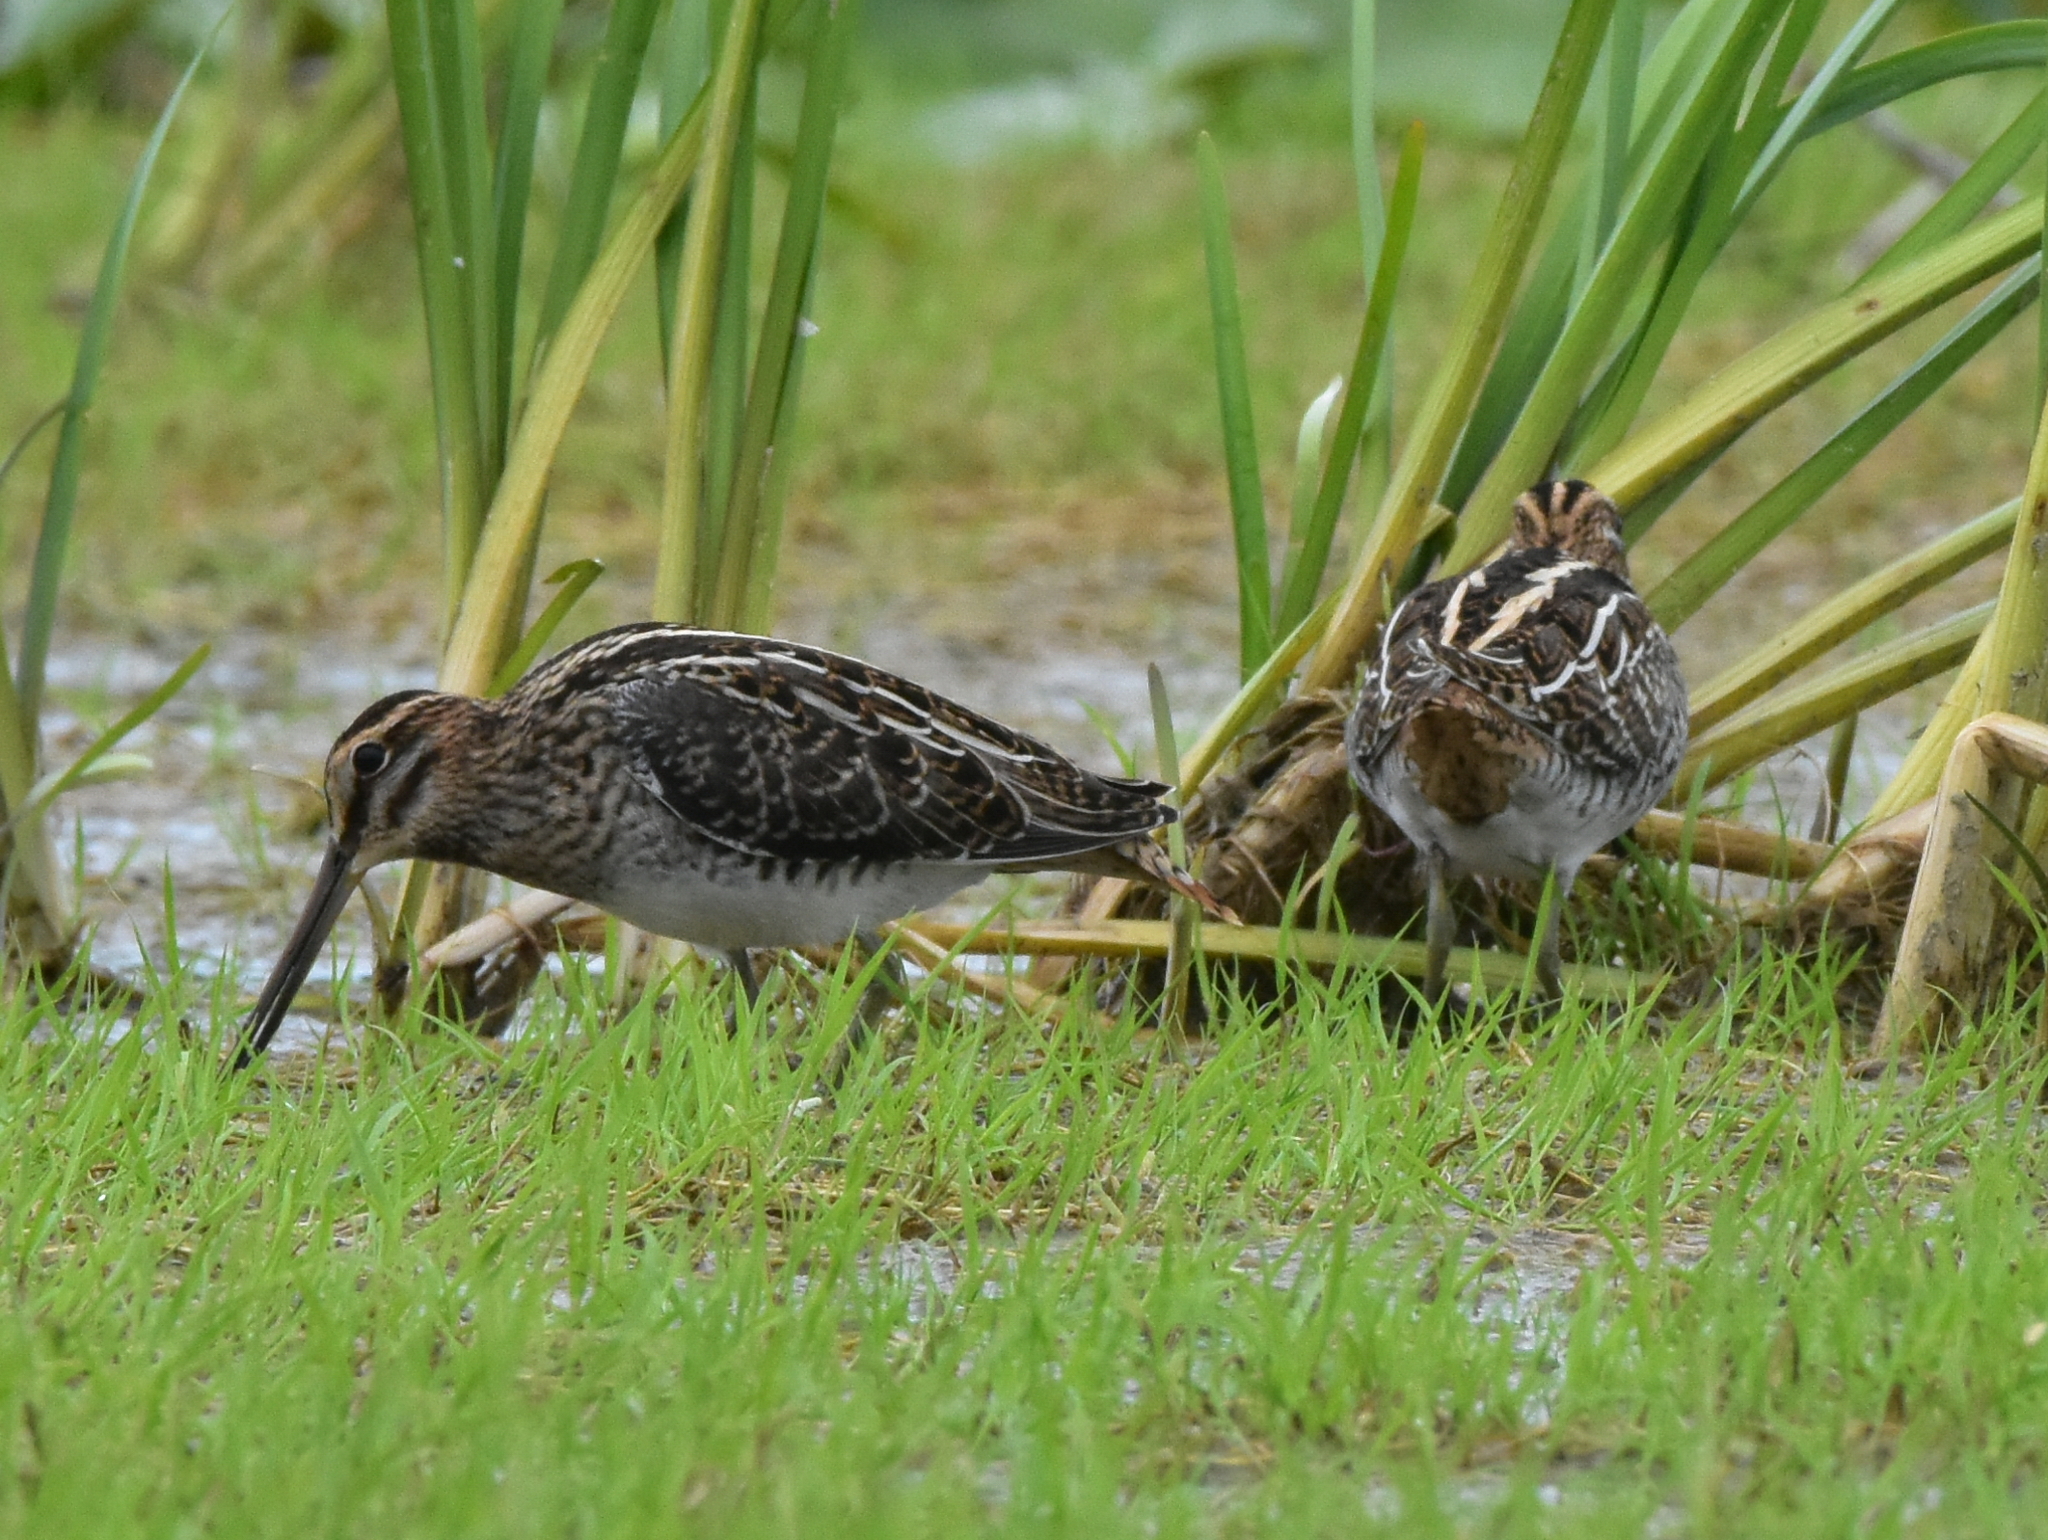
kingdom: Animalia
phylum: Chordata
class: Aves
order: Charadriiformes
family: Scolopacidae
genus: Gallinago
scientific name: Gallinago gallinago
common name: Common snipe
